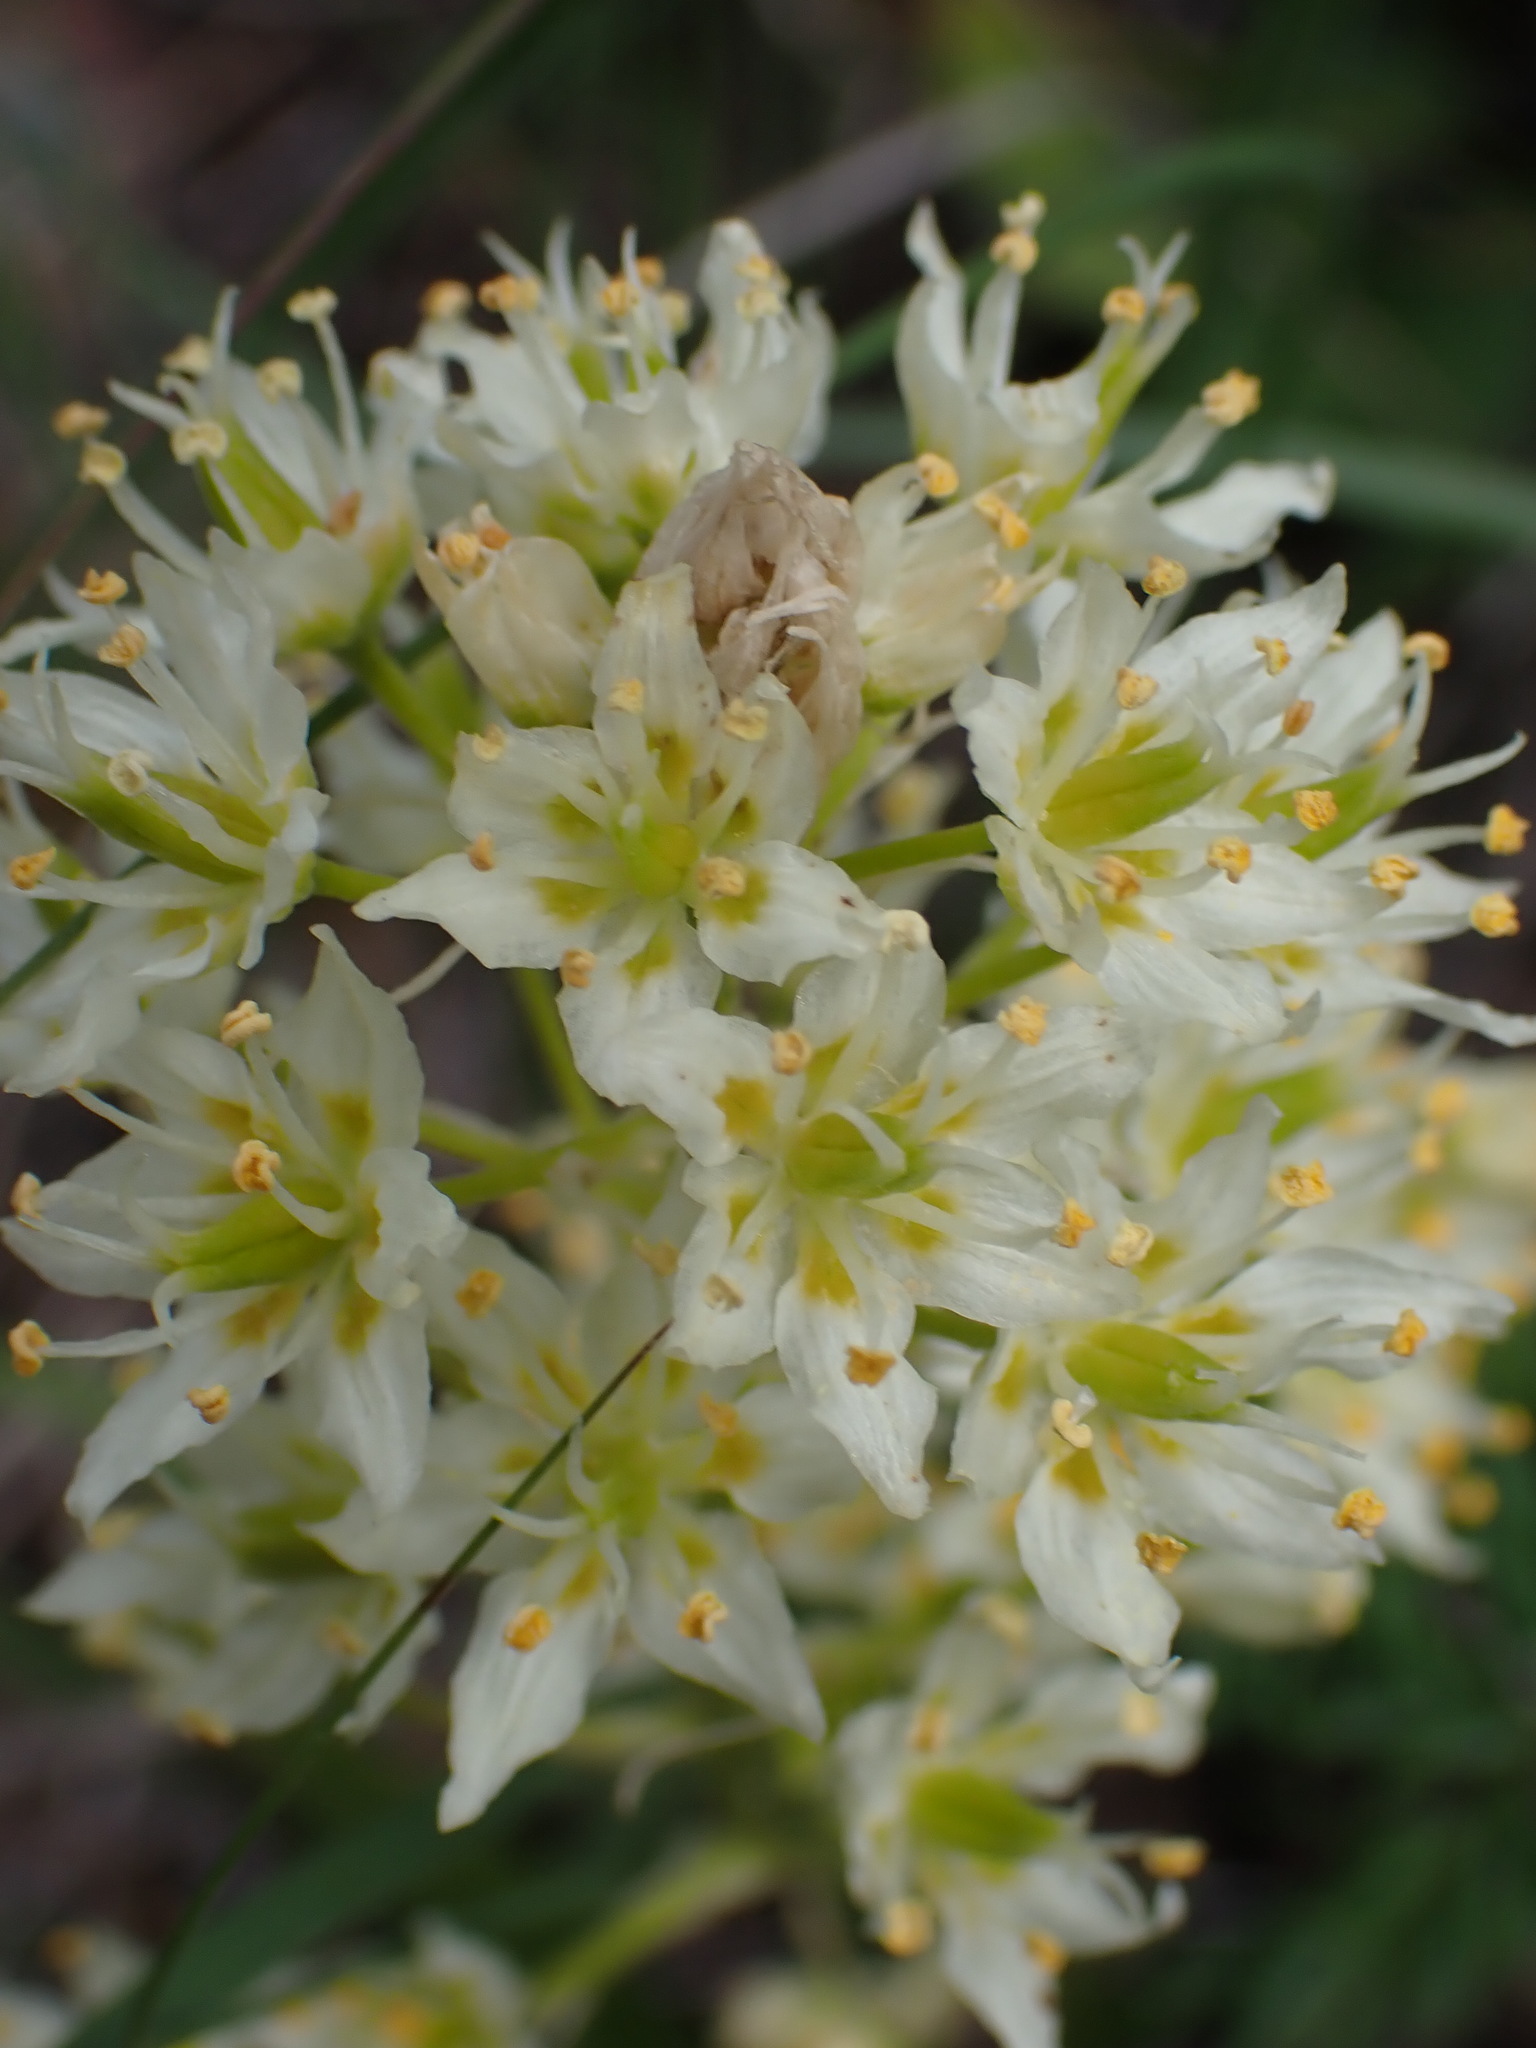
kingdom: Plantae
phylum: Tracheophyta
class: Liliopsida
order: Liliales
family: Melanthiaceae
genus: Toxicoscordion
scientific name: Toxicoscordion venenosum
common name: Meadow death camas
